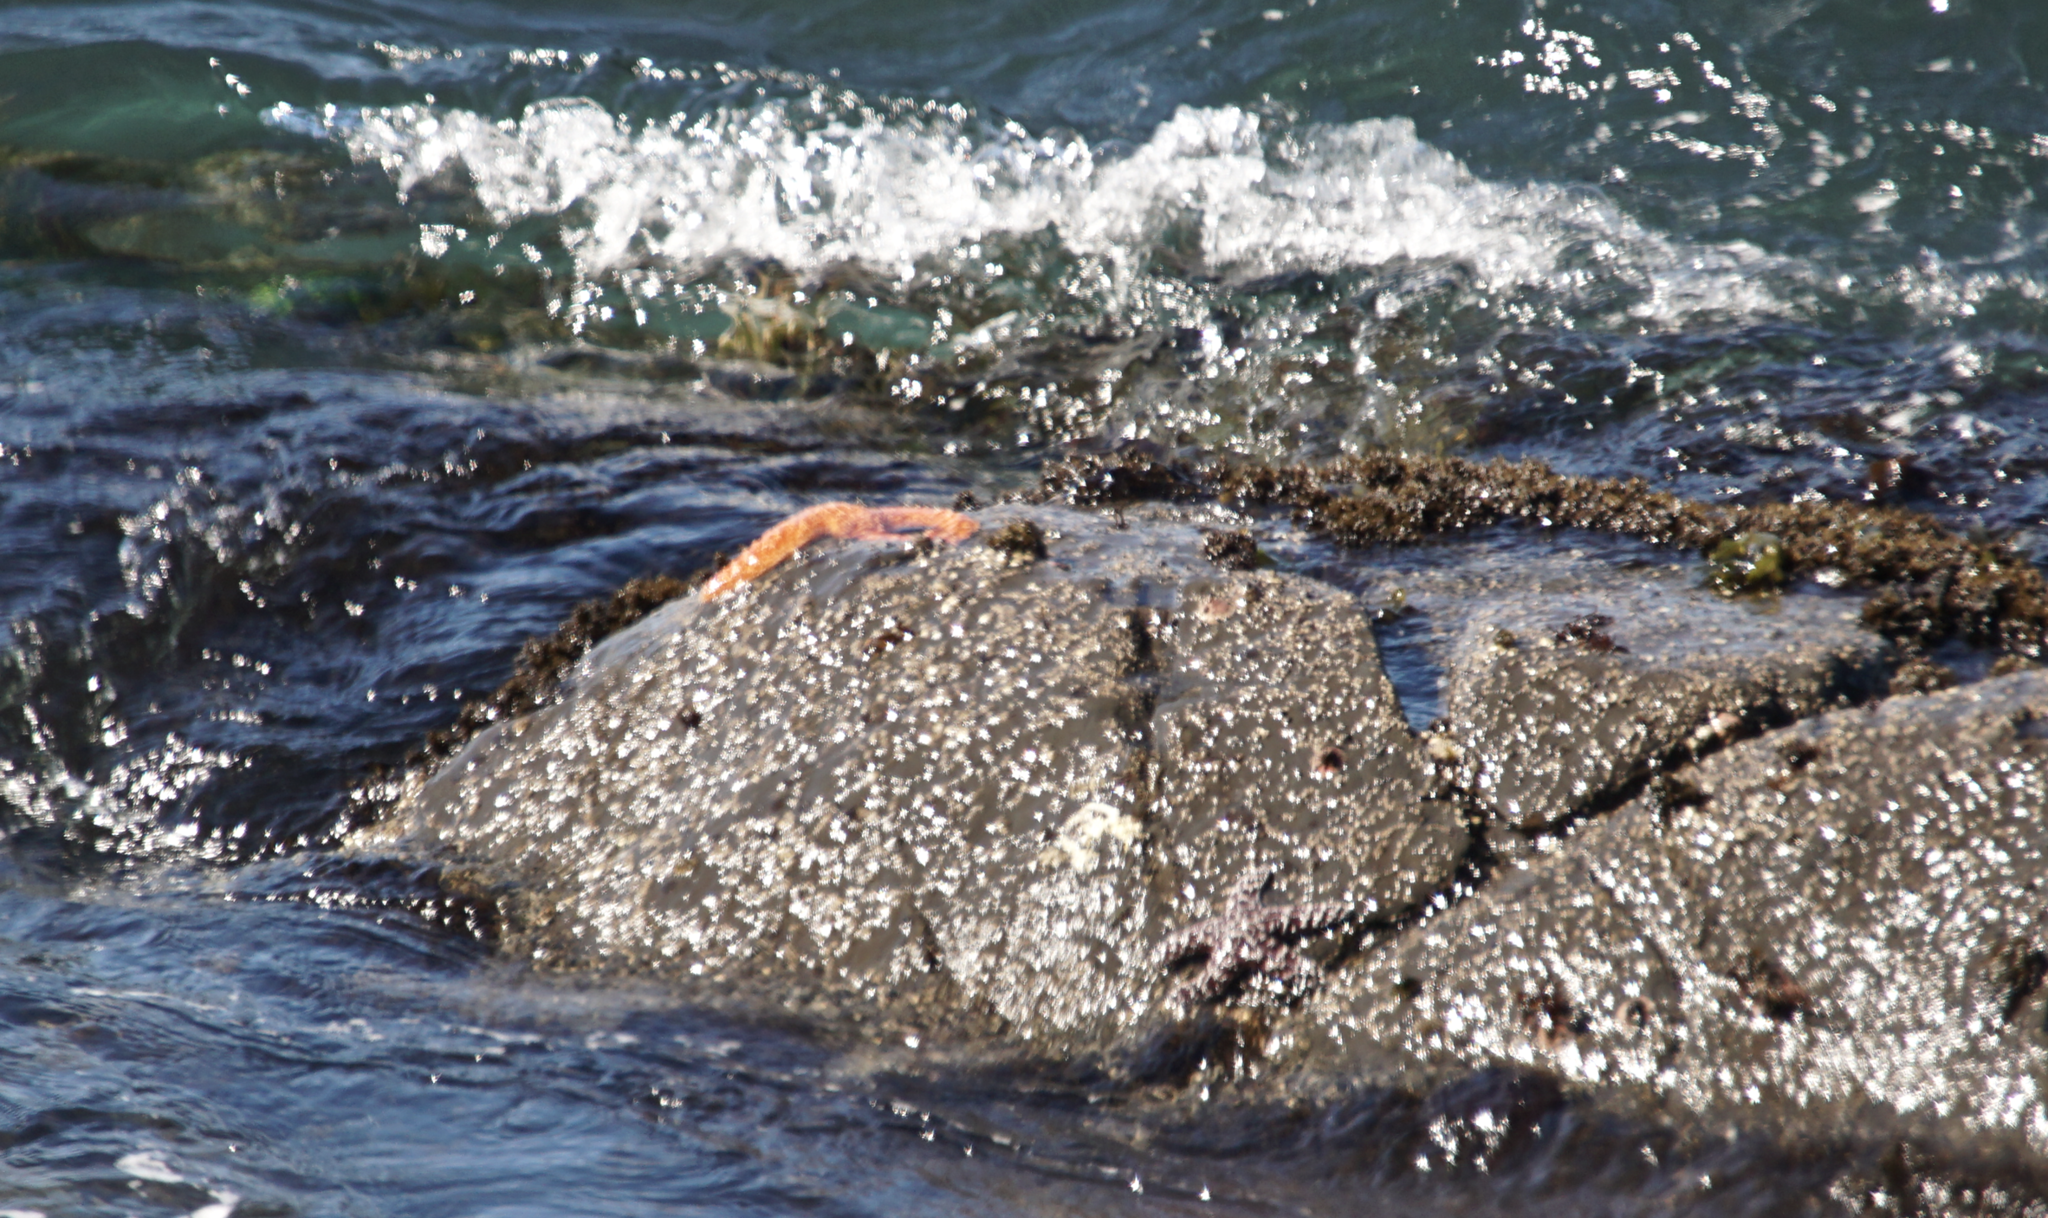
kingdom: Animalia
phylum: Echinodermata
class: Asteroidea
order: Forcipulatida
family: Asteriidae
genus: Pisaster
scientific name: Pisaster ochraceus
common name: Ochre stars
